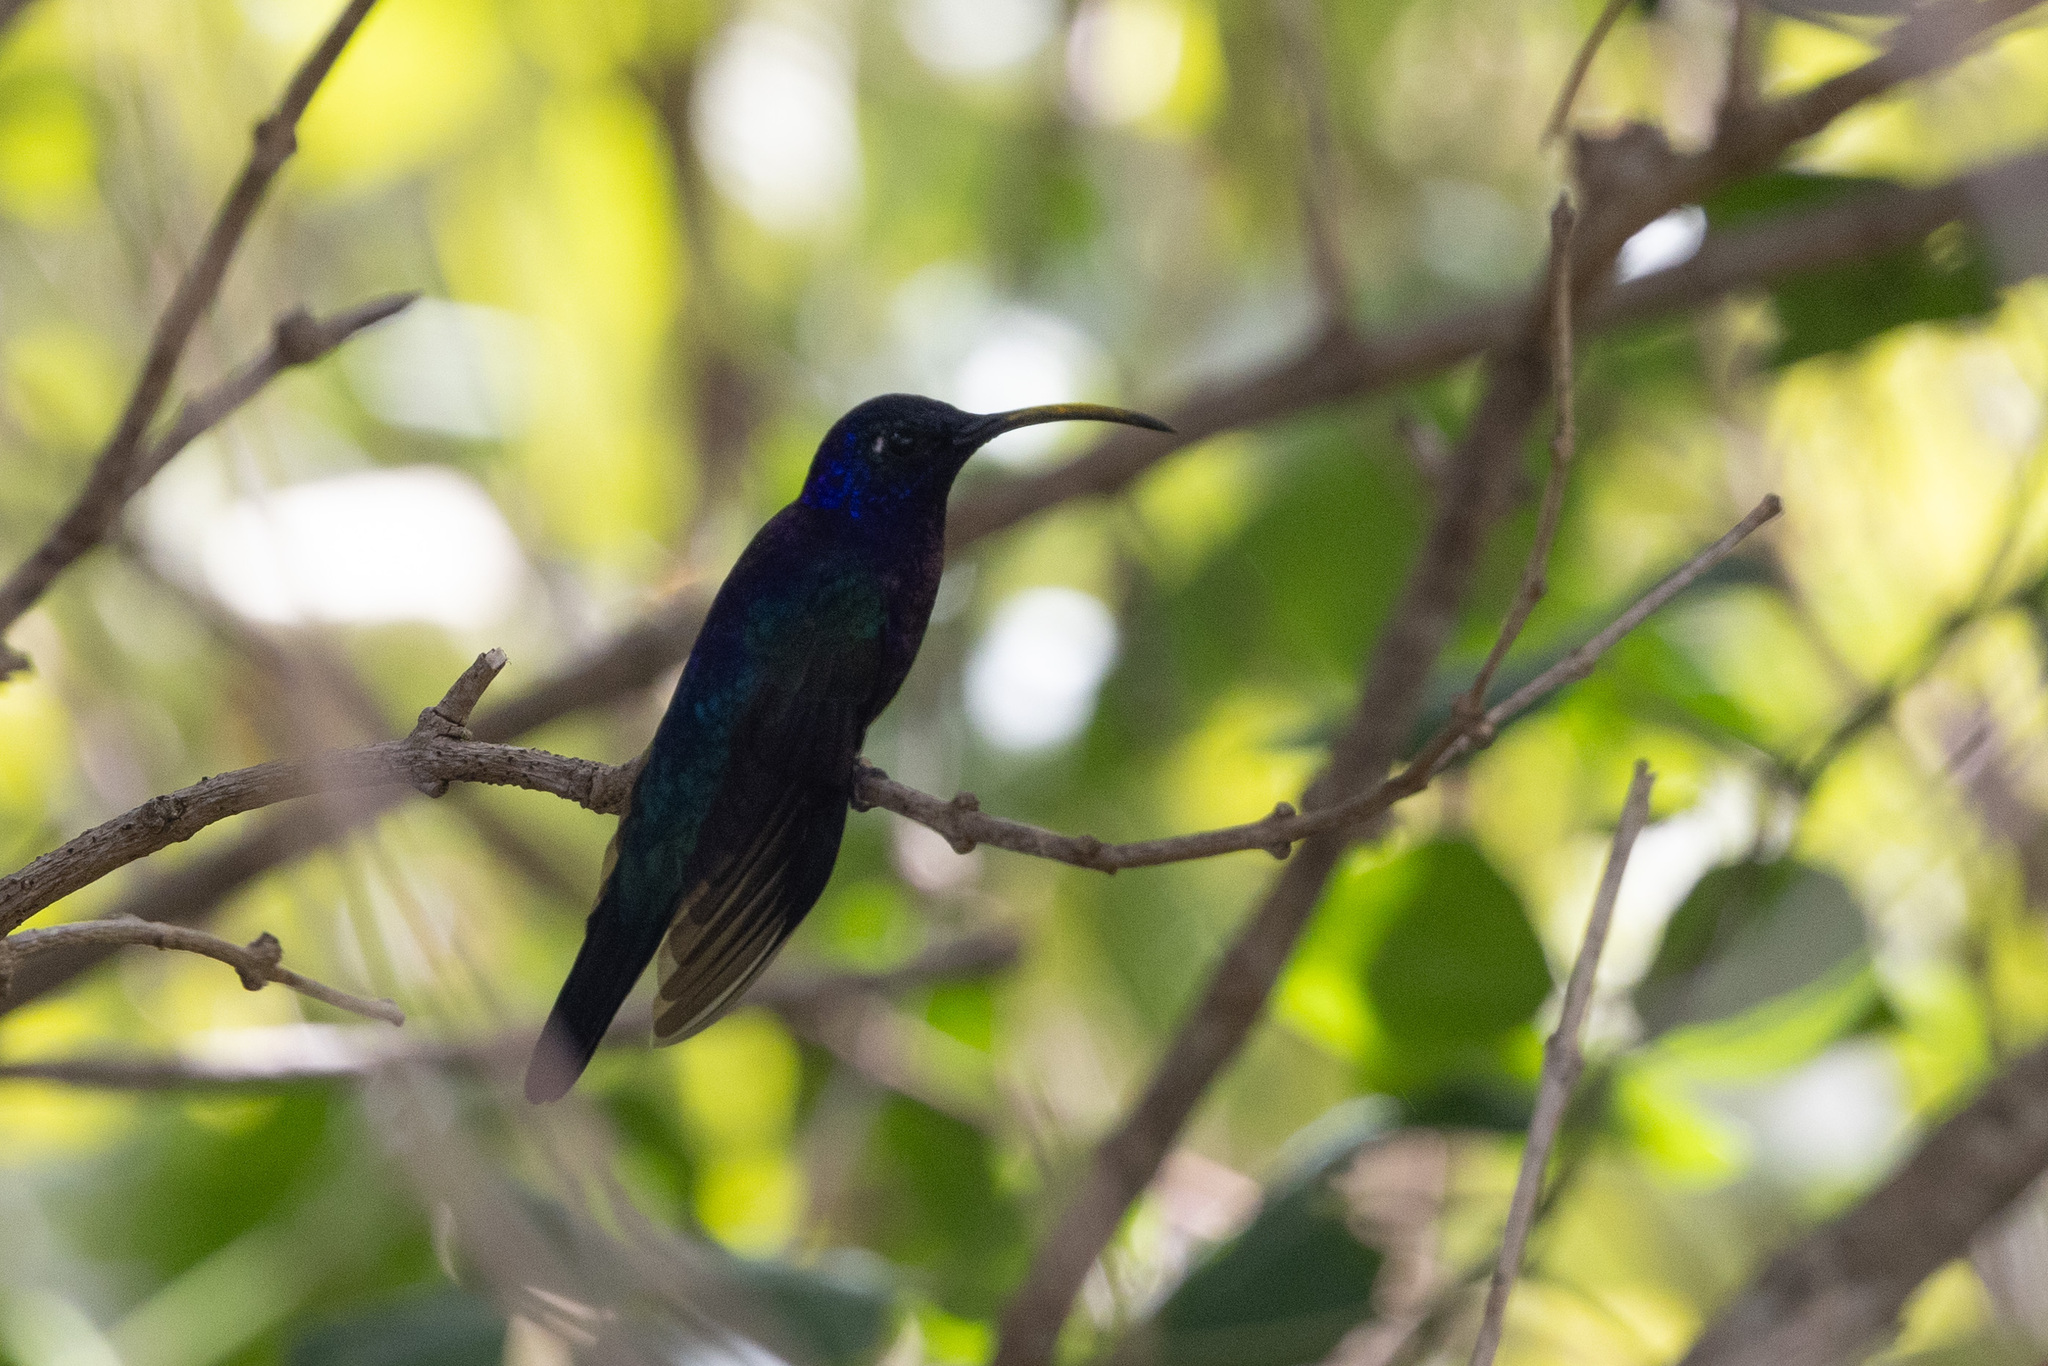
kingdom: Animalia
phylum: Chordata
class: Aves
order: Apodiformes
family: Trochilidae
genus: Campylopterus
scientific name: Campylopterus hemileucurus
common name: Violet sabrewing
